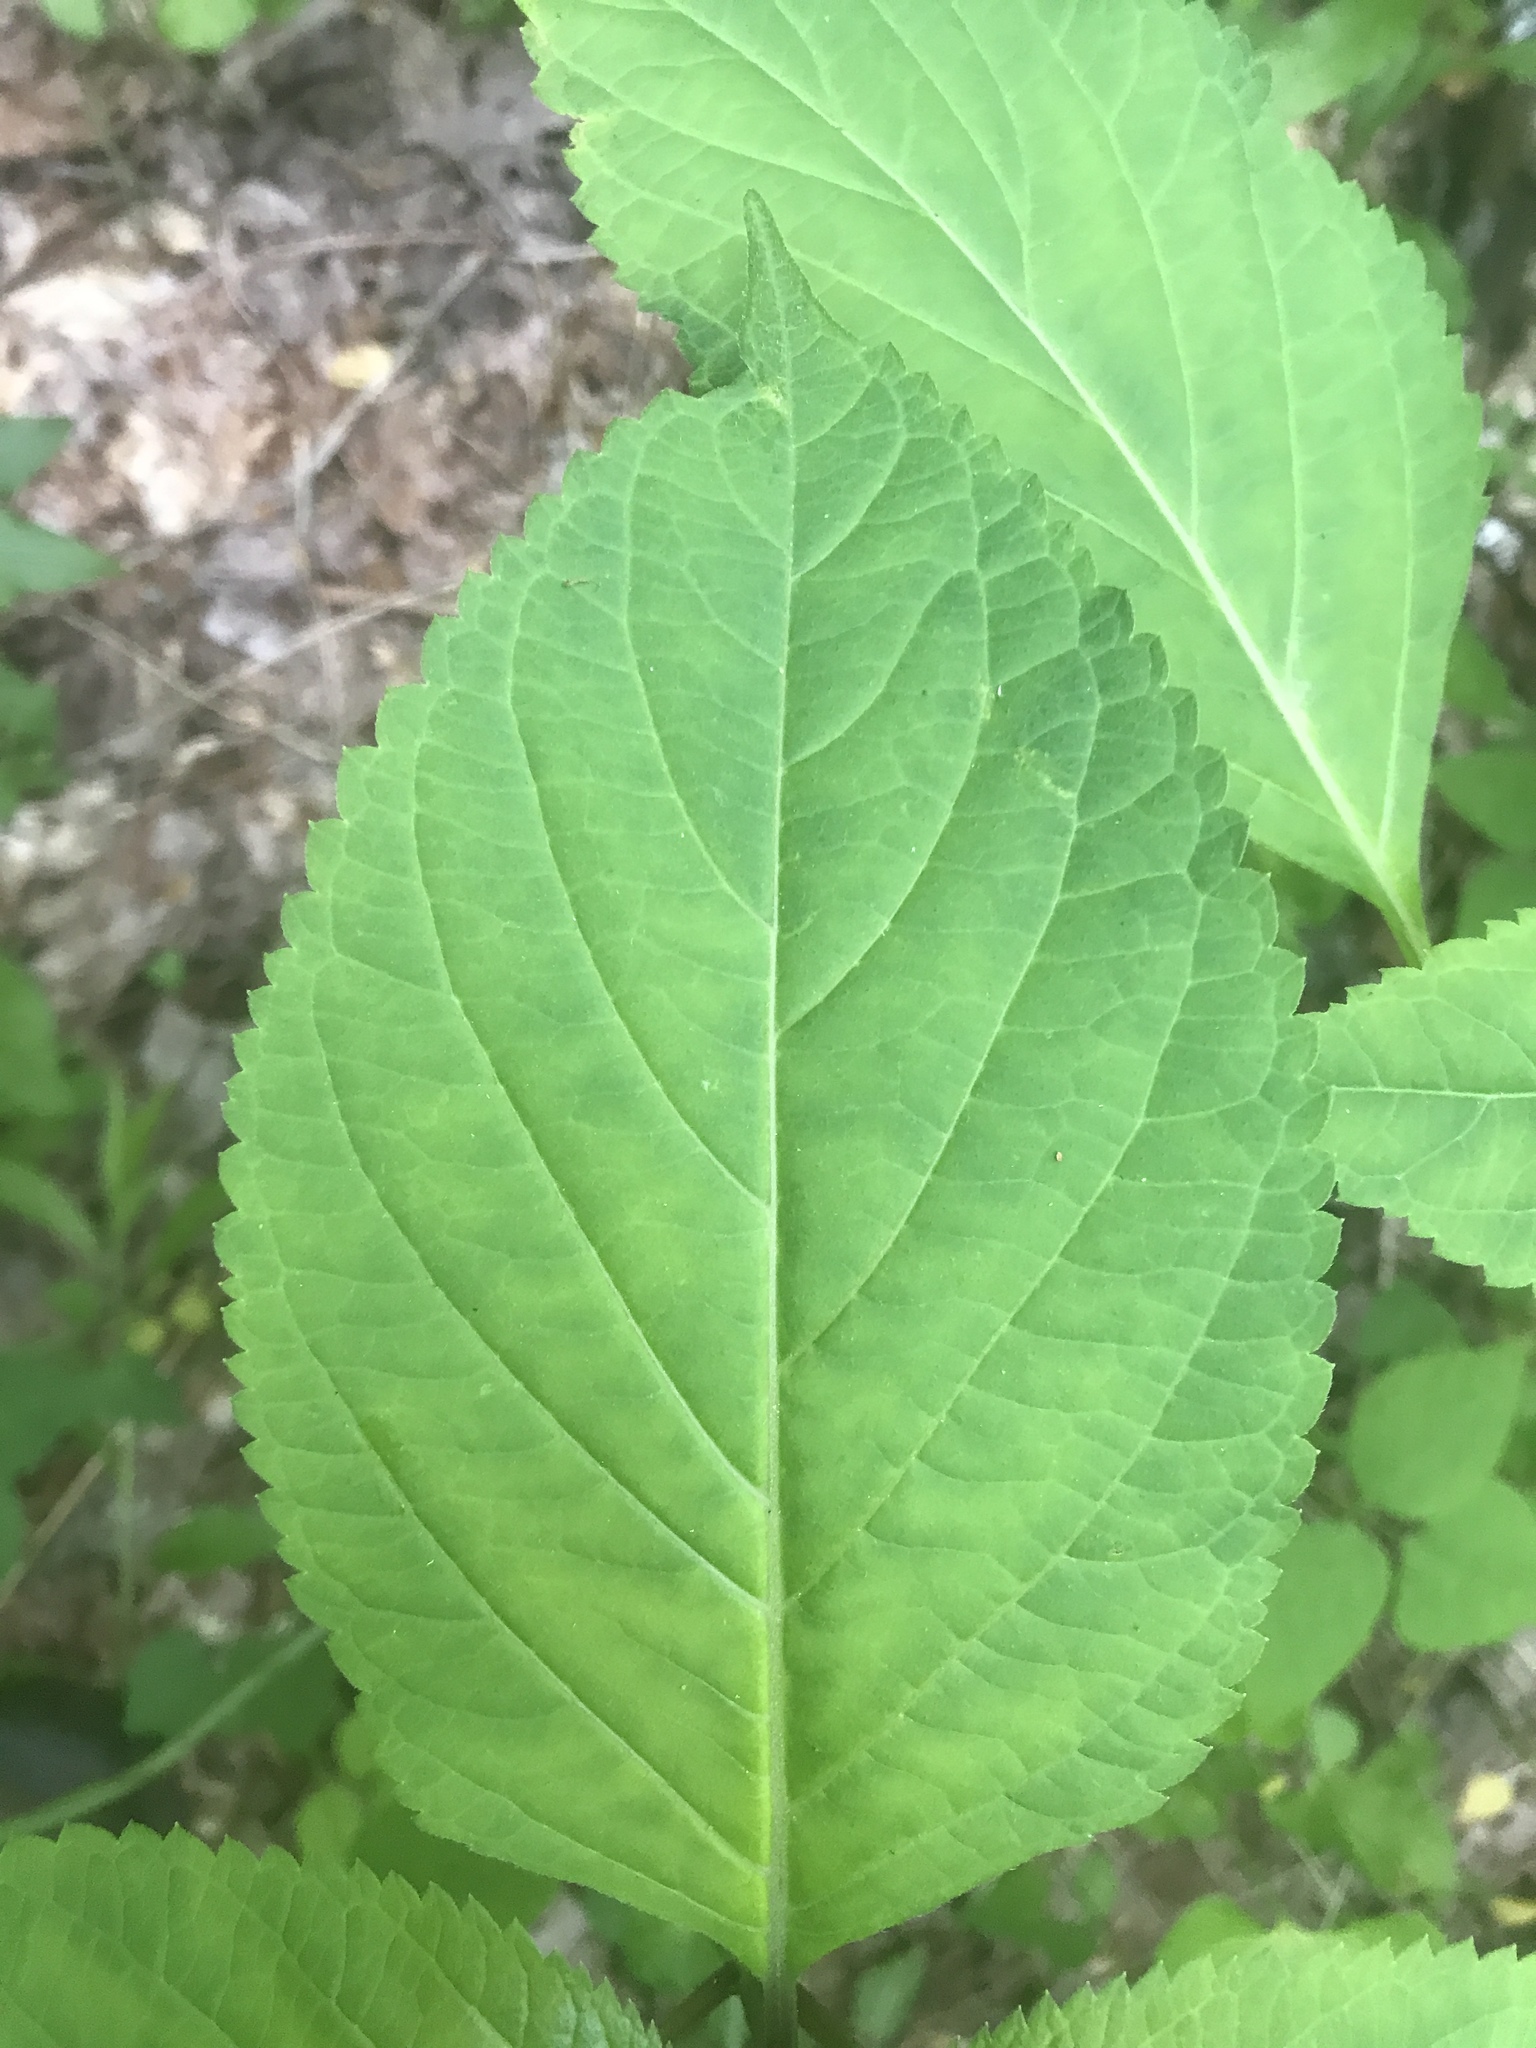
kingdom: Plantae
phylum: Tracheophyta
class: Magnoliopsida
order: Lamiales
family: Lamiaceae
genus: Collinsonia
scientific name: Collinsonia canadensis
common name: Northern horsebalm
